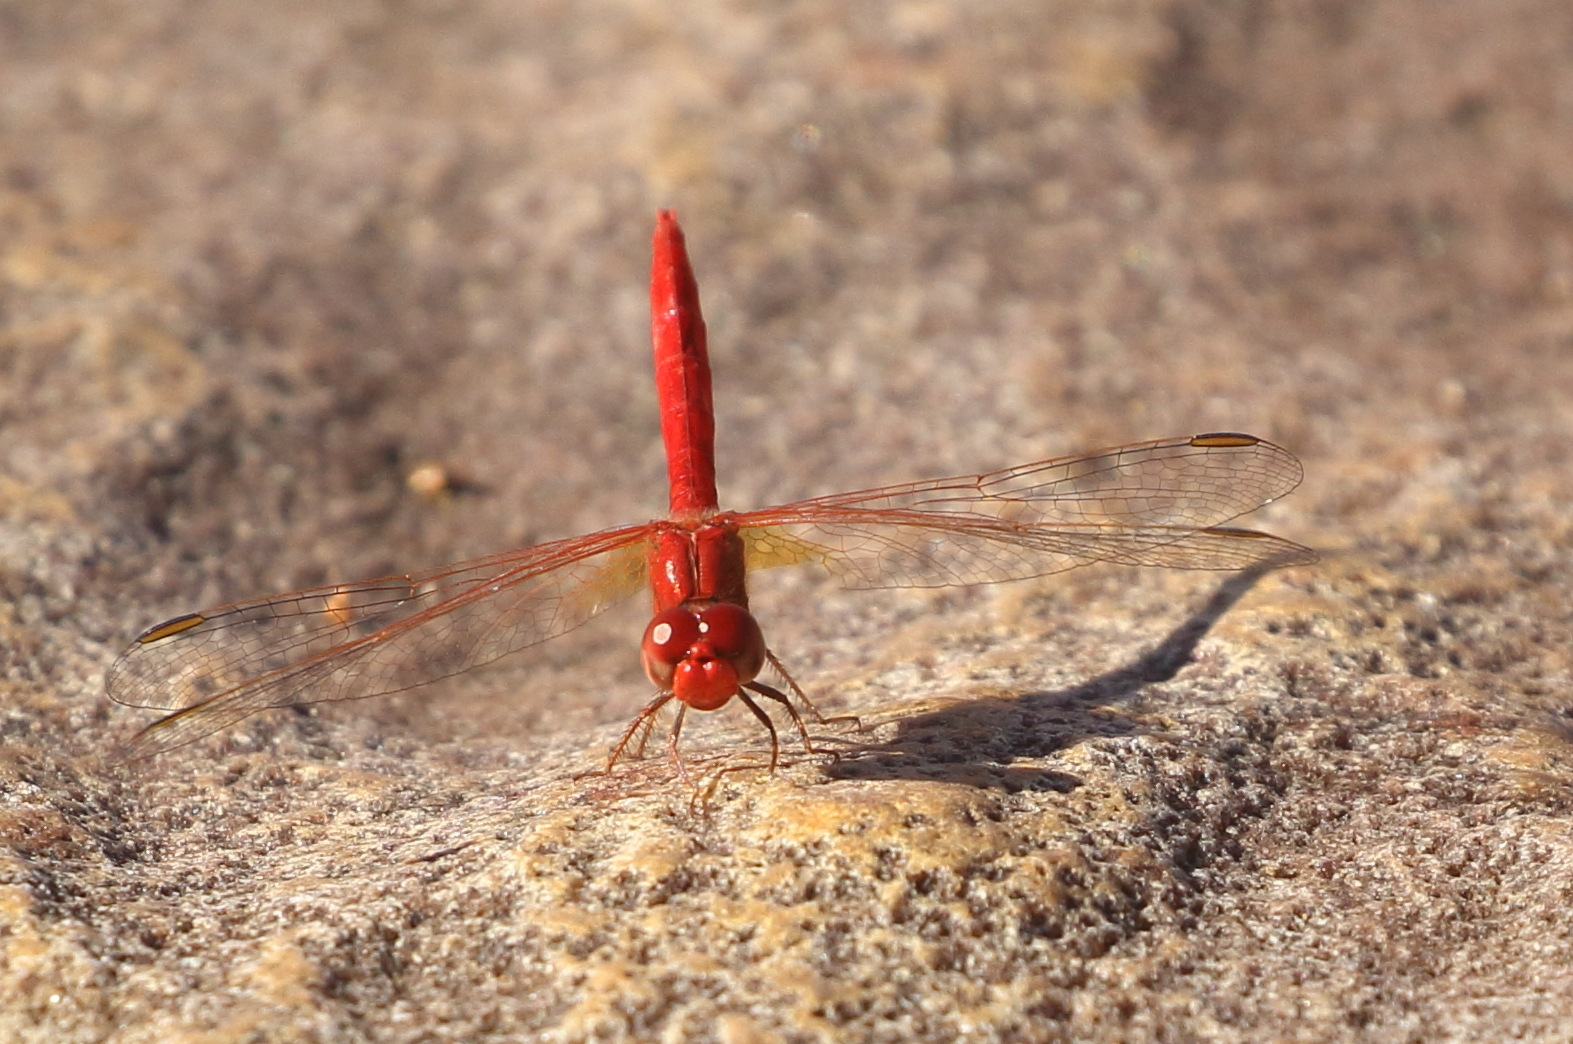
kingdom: Animalia
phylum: Arthropoda
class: Insecta
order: Odonata
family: Libellulidae
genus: Diplacodes
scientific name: Diplacodes haematodes
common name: Scarlet percher
